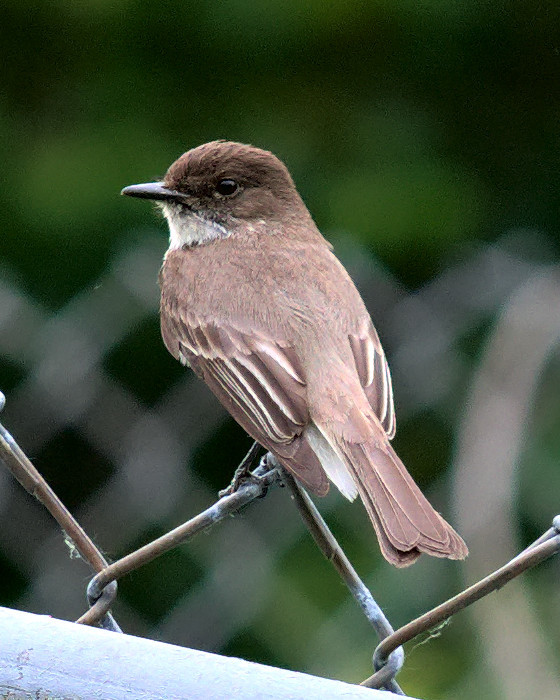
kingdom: Animalia
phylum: Chordata
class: Aves
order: Passeriformes
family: Tyrannidae
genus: Sayornis
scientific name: Sayornis phoebe
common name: Eastern phoebe
